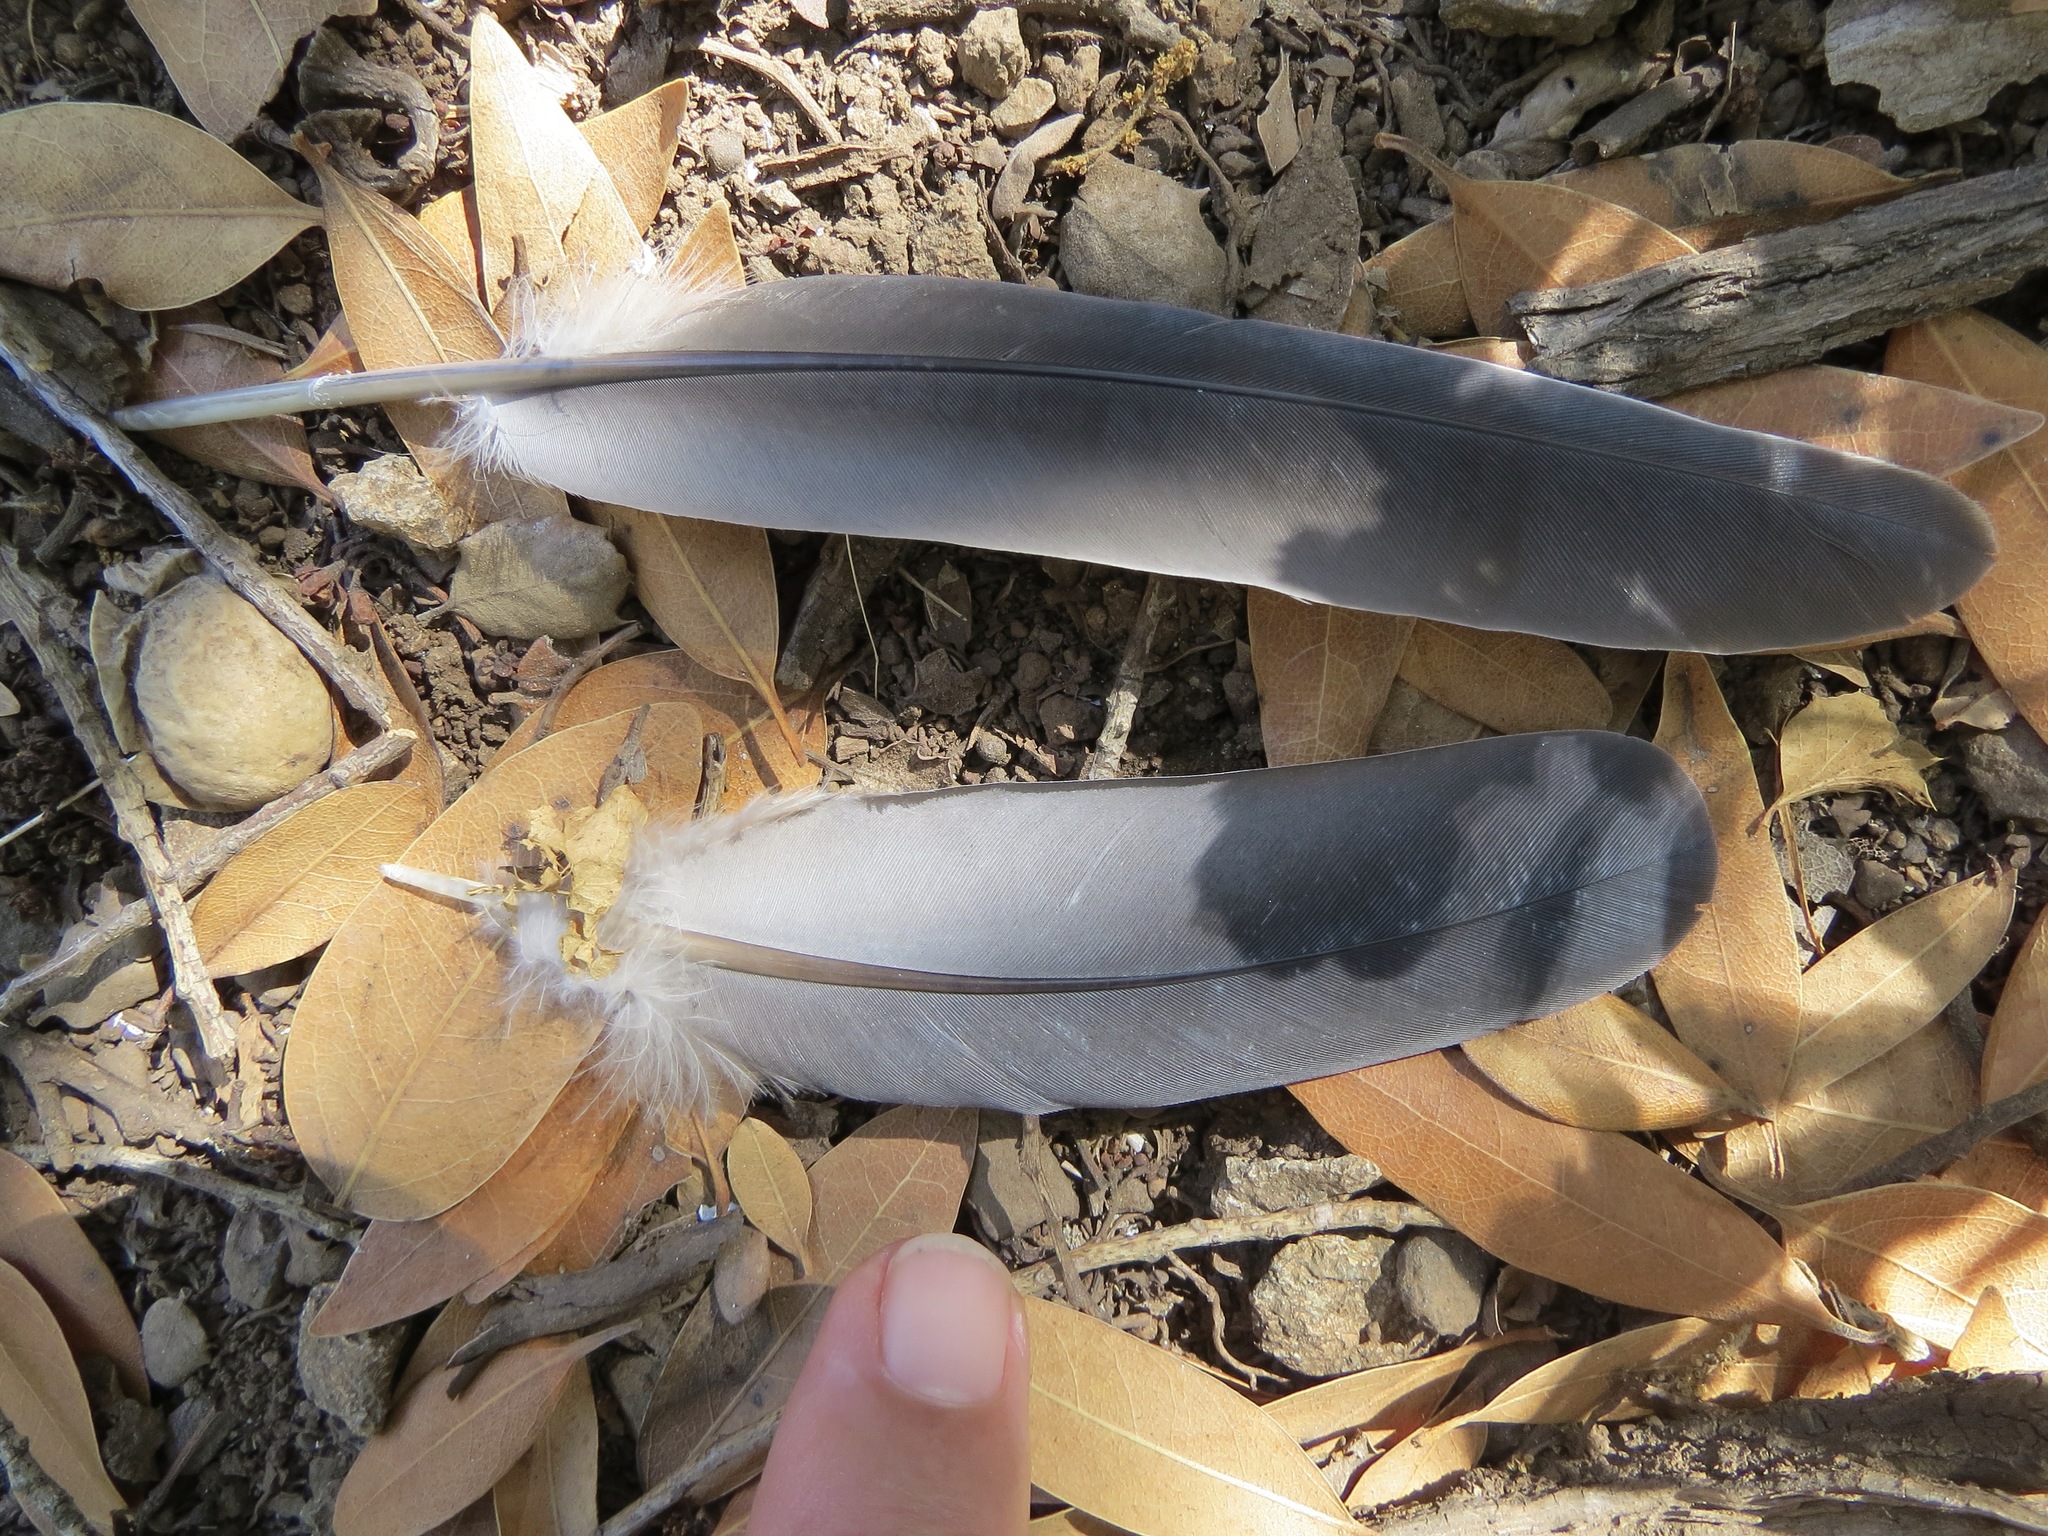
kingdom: Animalia
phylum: Chordata
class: Aves
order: Columbiformes
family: Columbidae
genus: Patagioenas
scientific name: Patagioenas fasciata
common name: Band-tailed pigeon
